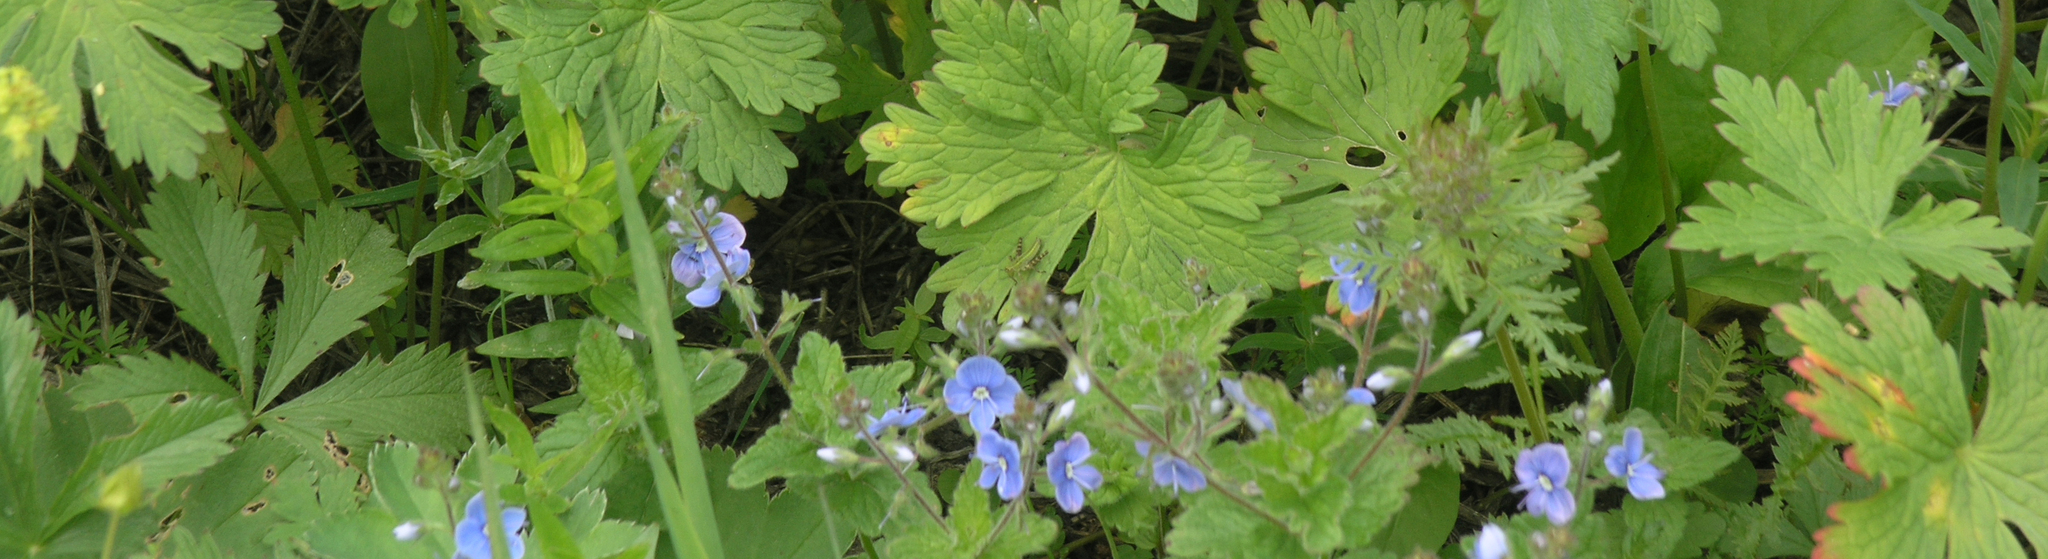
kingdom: Plantae
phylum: Tracheophyta
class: Magnoliopsida
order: Lamiales
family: Plantaginaceae
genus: Veronica
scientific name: Veronica chamaedrys
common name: Germander speedwell
